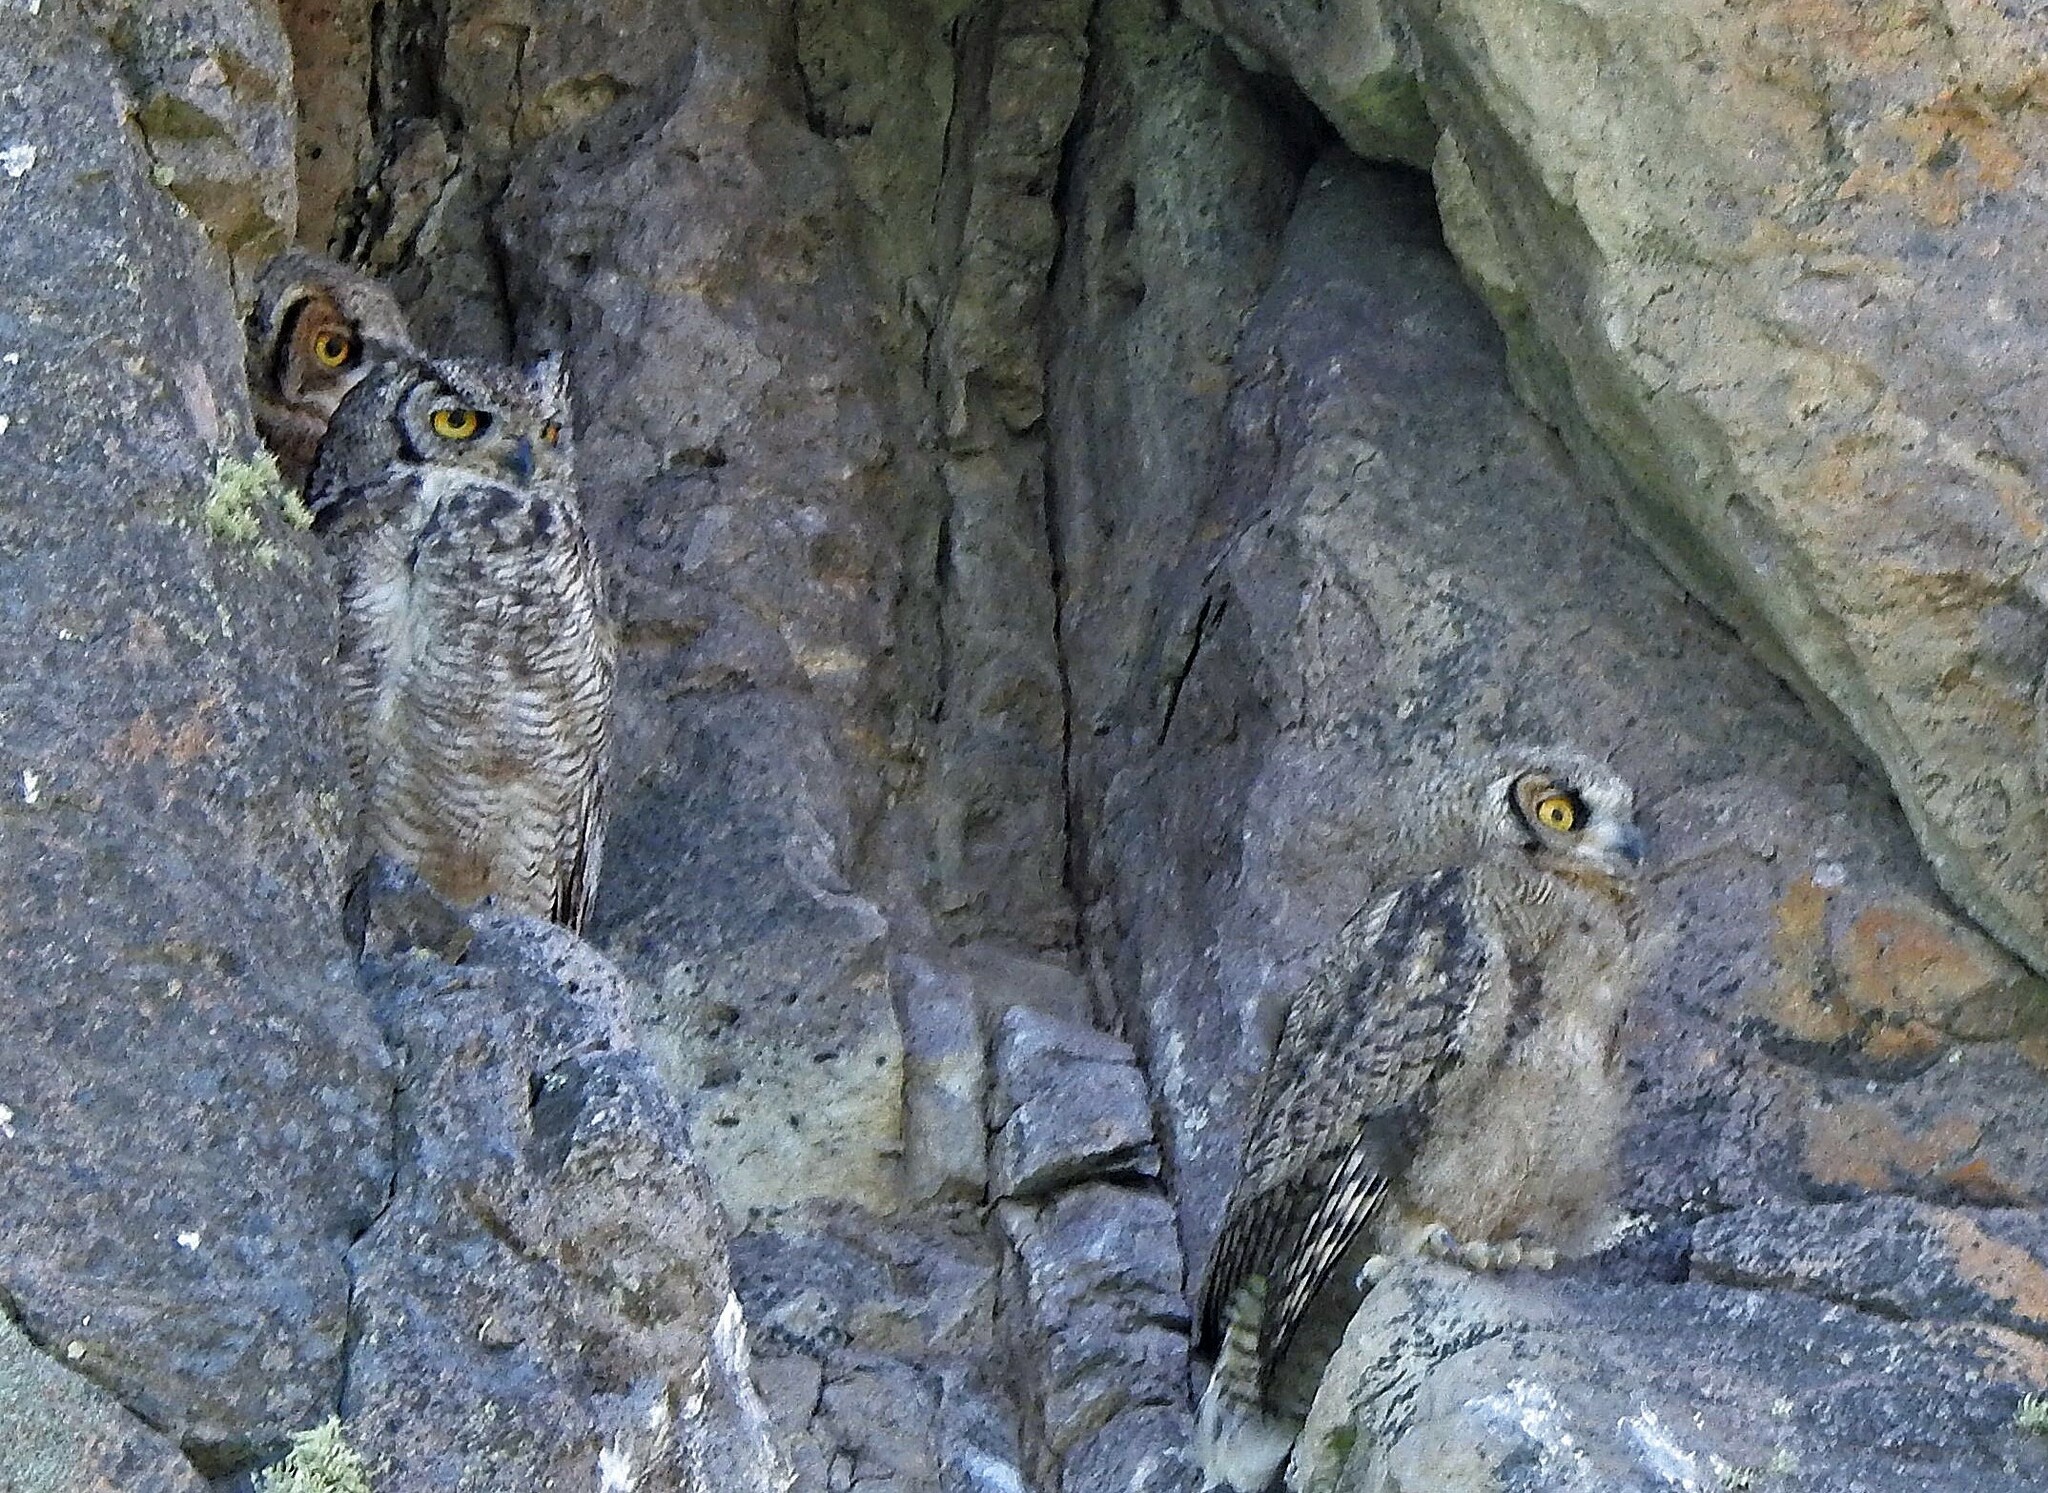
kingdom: Animalia
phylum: Chordata
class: Aves
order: Strigiformes
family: Strigidae
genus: Bubo
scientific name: Bubo magellanicus
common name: Lesser horned owl
